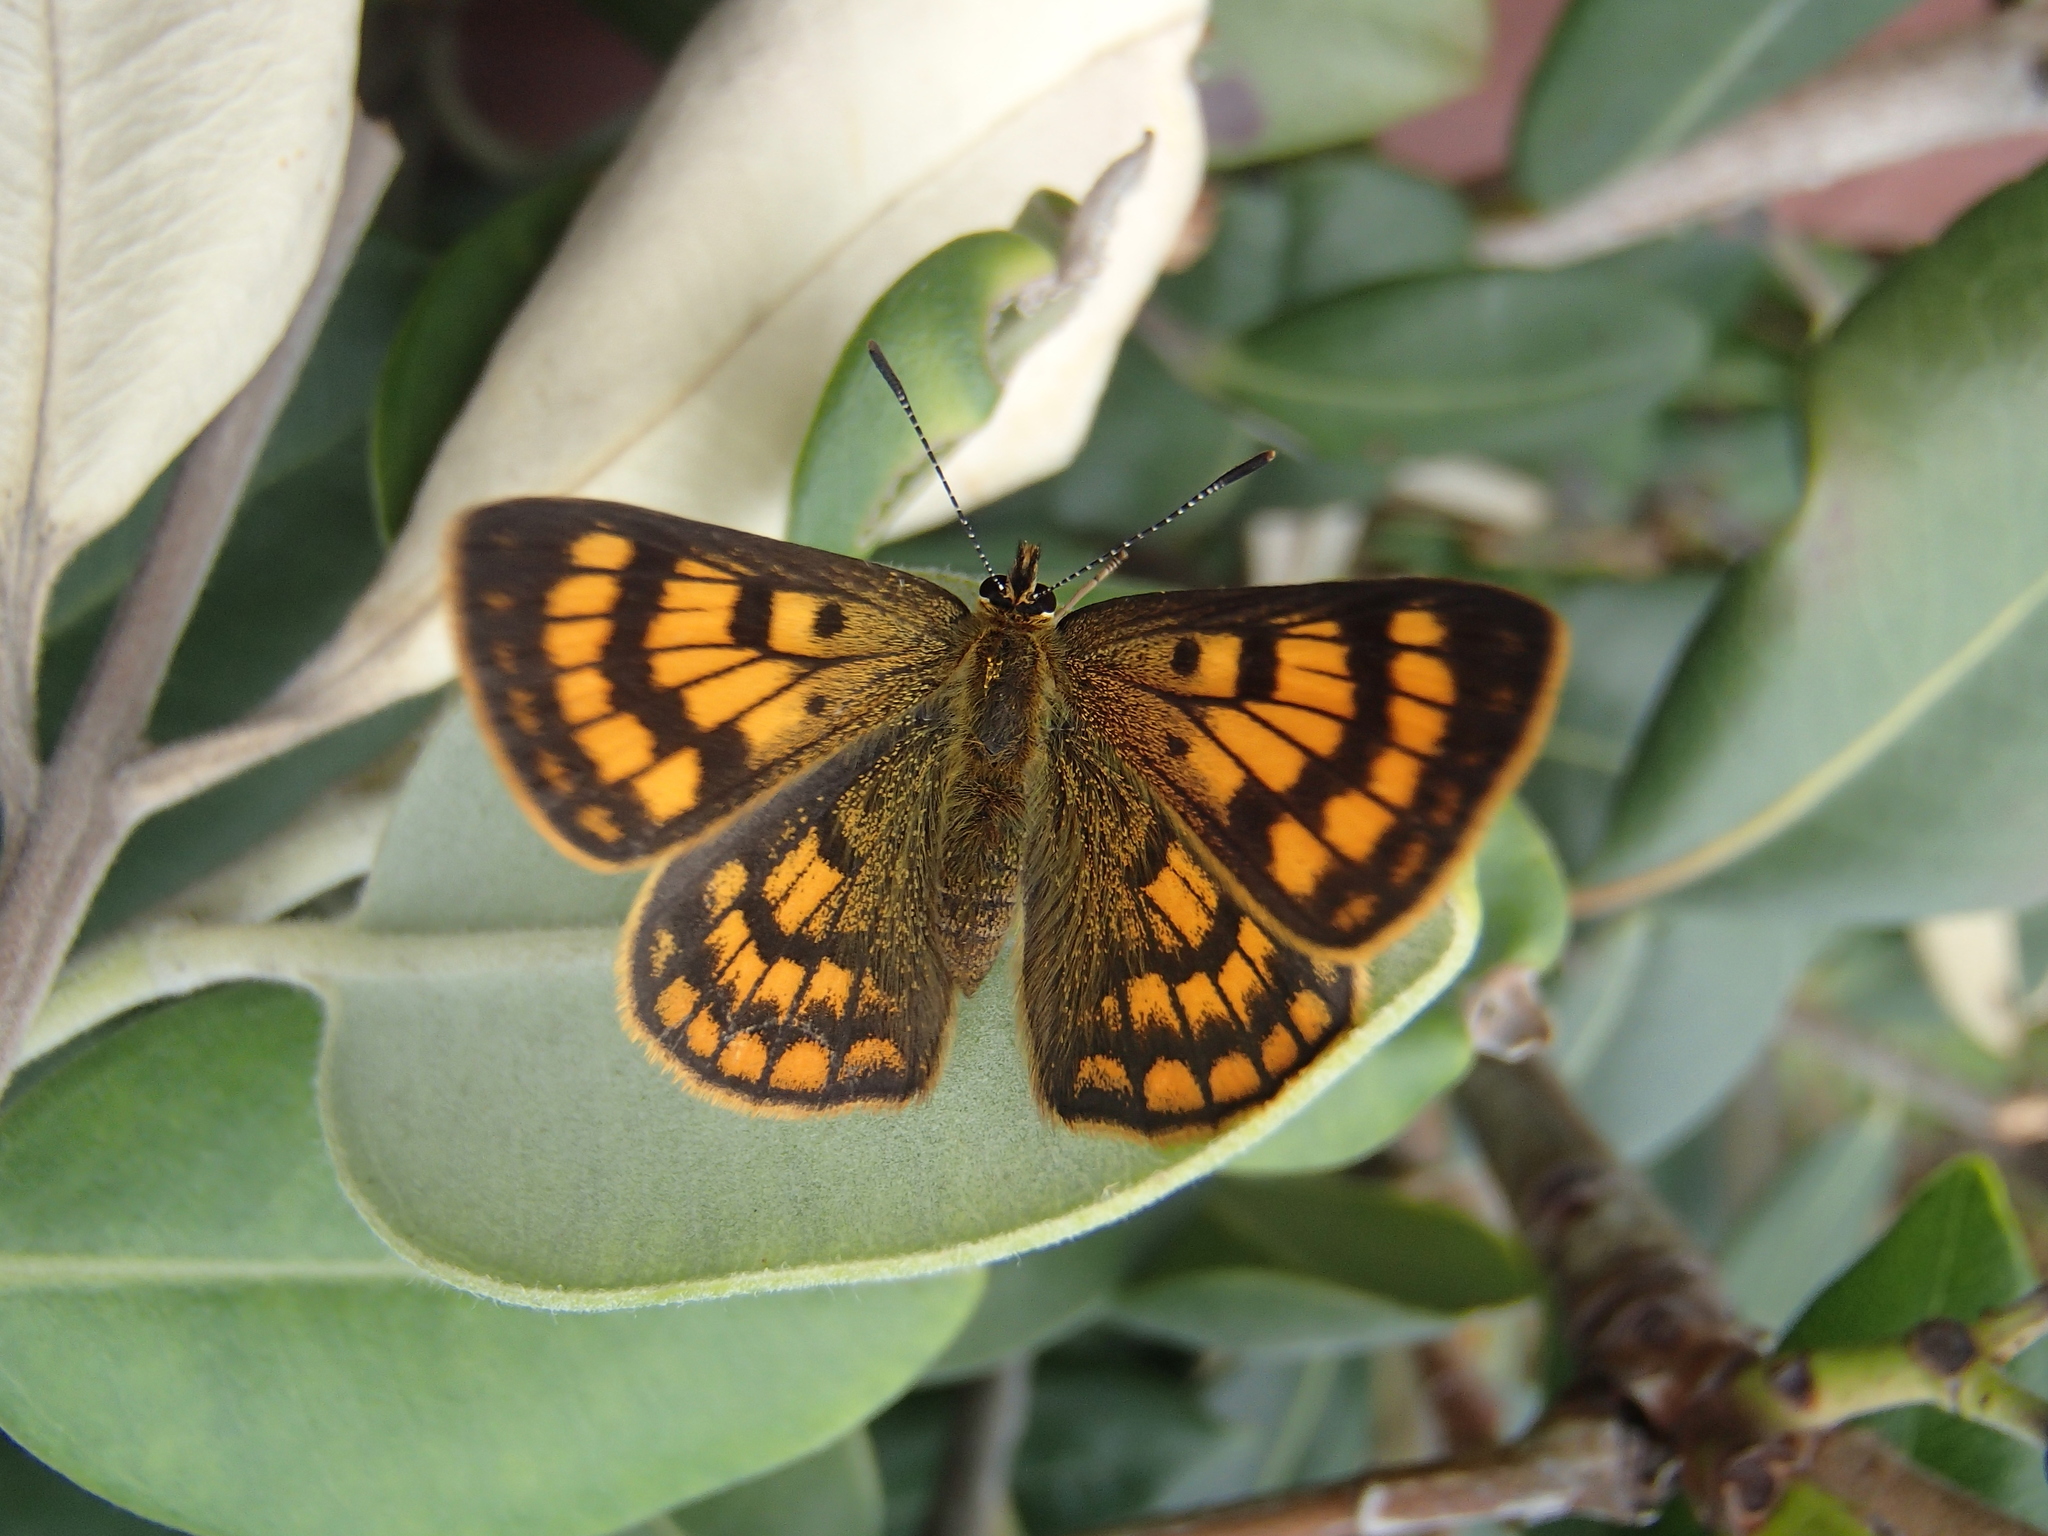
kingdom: Animalia
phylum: Arthropoda
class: Insecta
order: Lepidoptera
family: Lycaenidae
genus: Lycaena
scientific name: Lycaena salustius
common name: North island coastal copper
